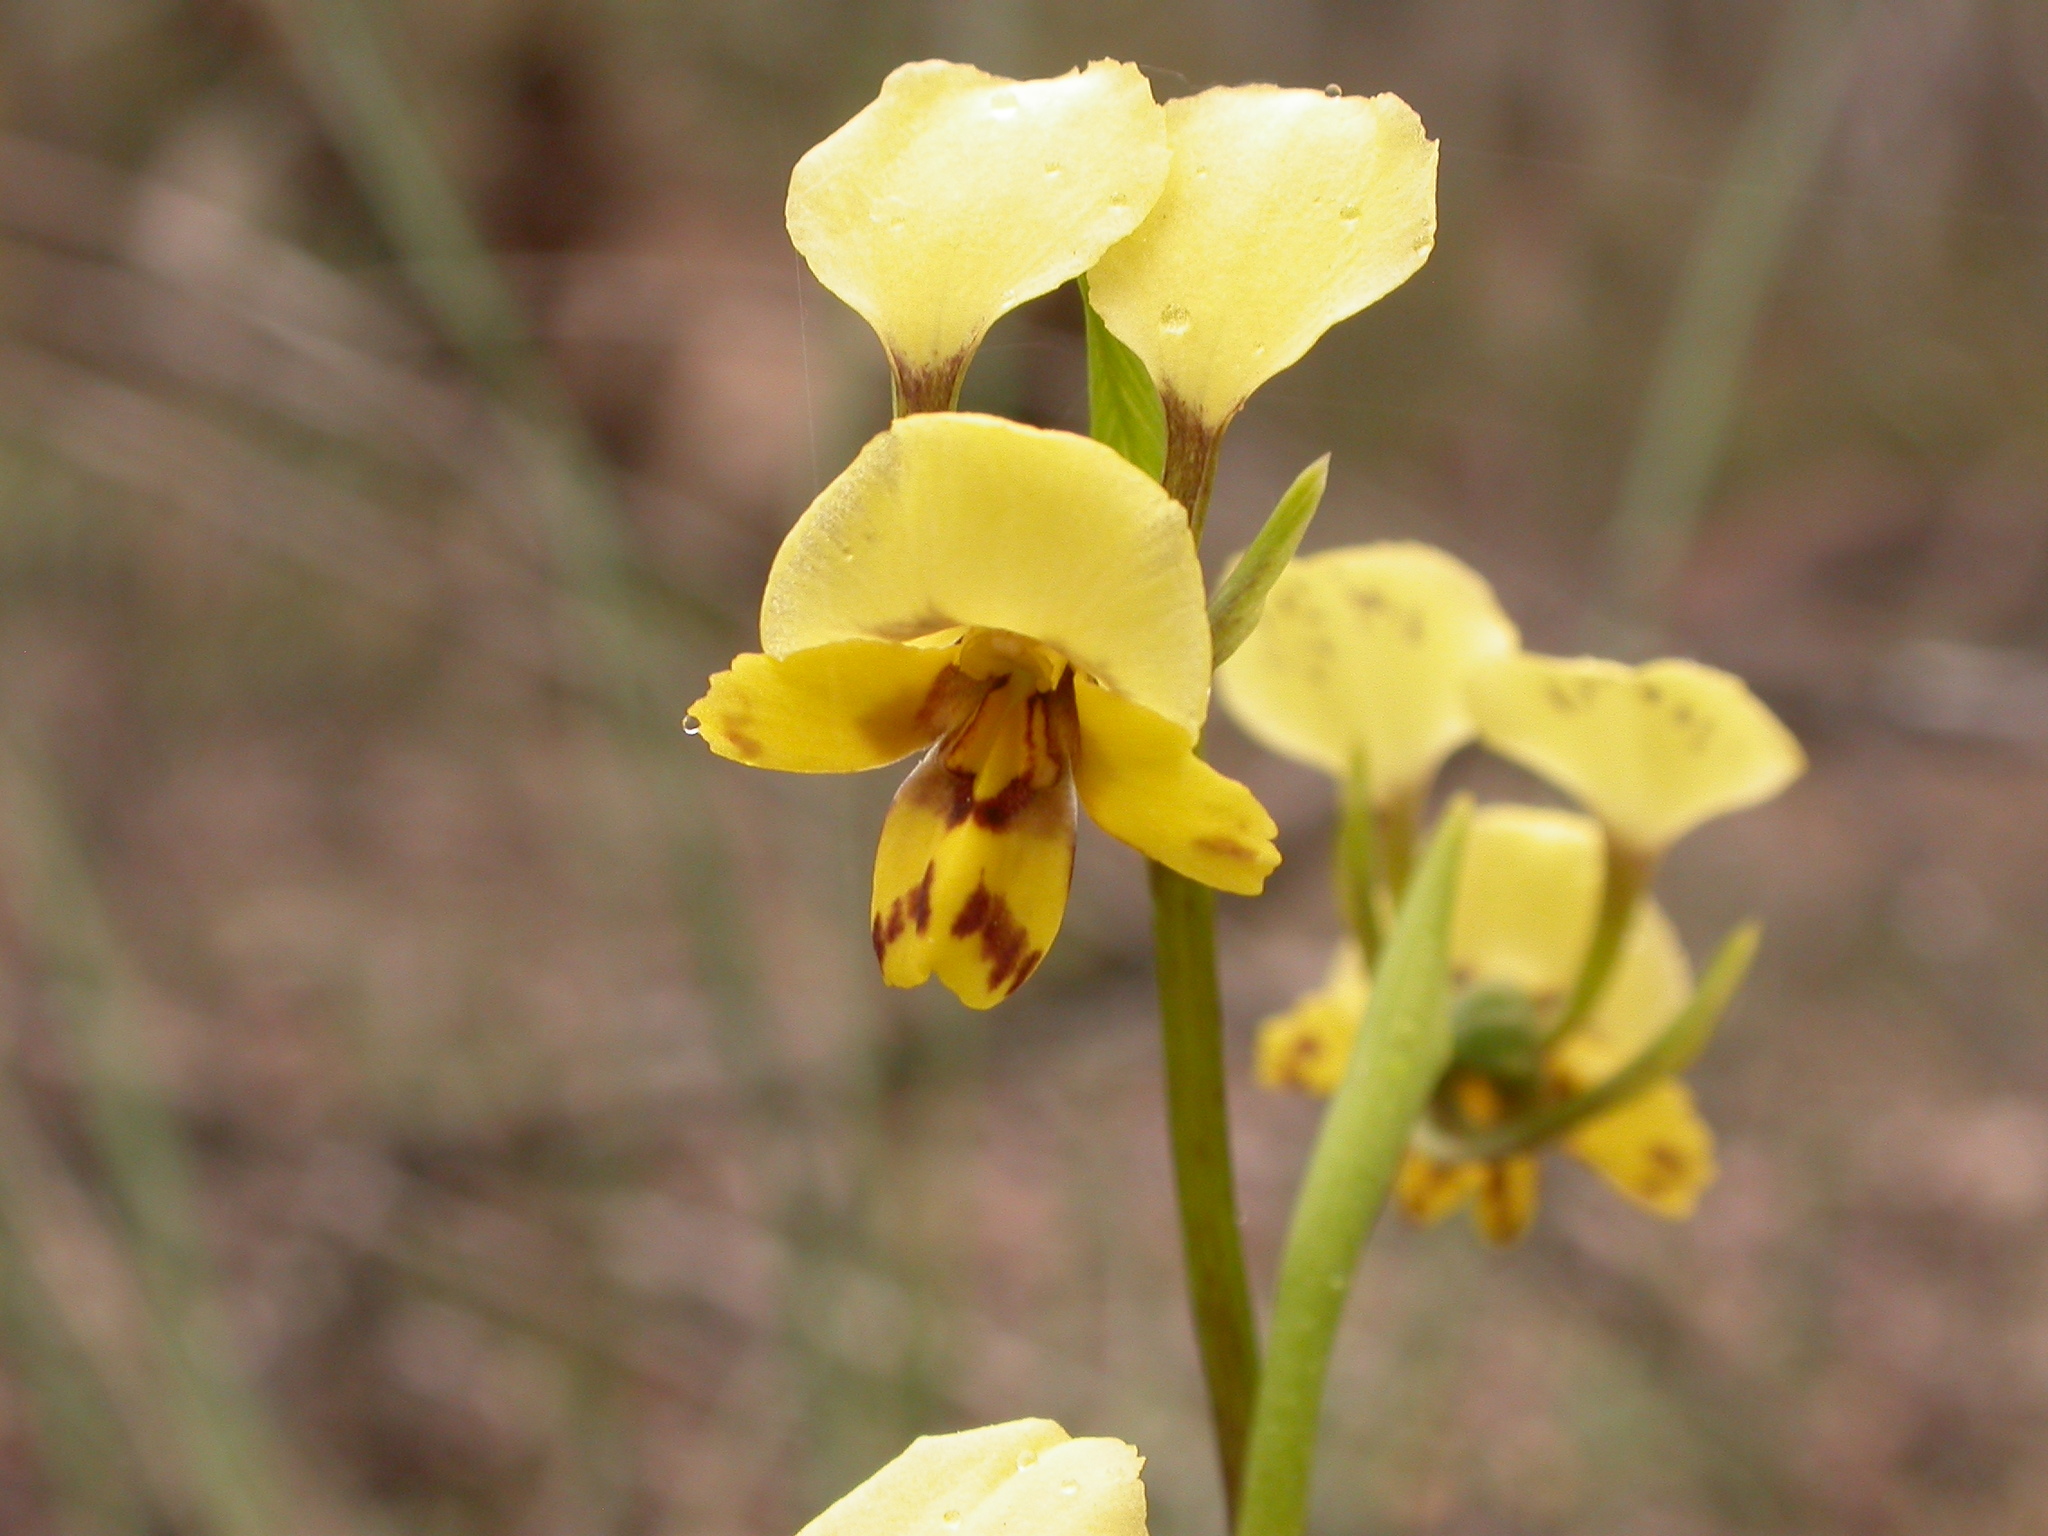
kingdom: Plantae
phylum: Tracheophyta
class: Liliopsida
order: Asparagales
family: Orchidaceae
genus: Diuris
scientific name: Diuris nigromontana
